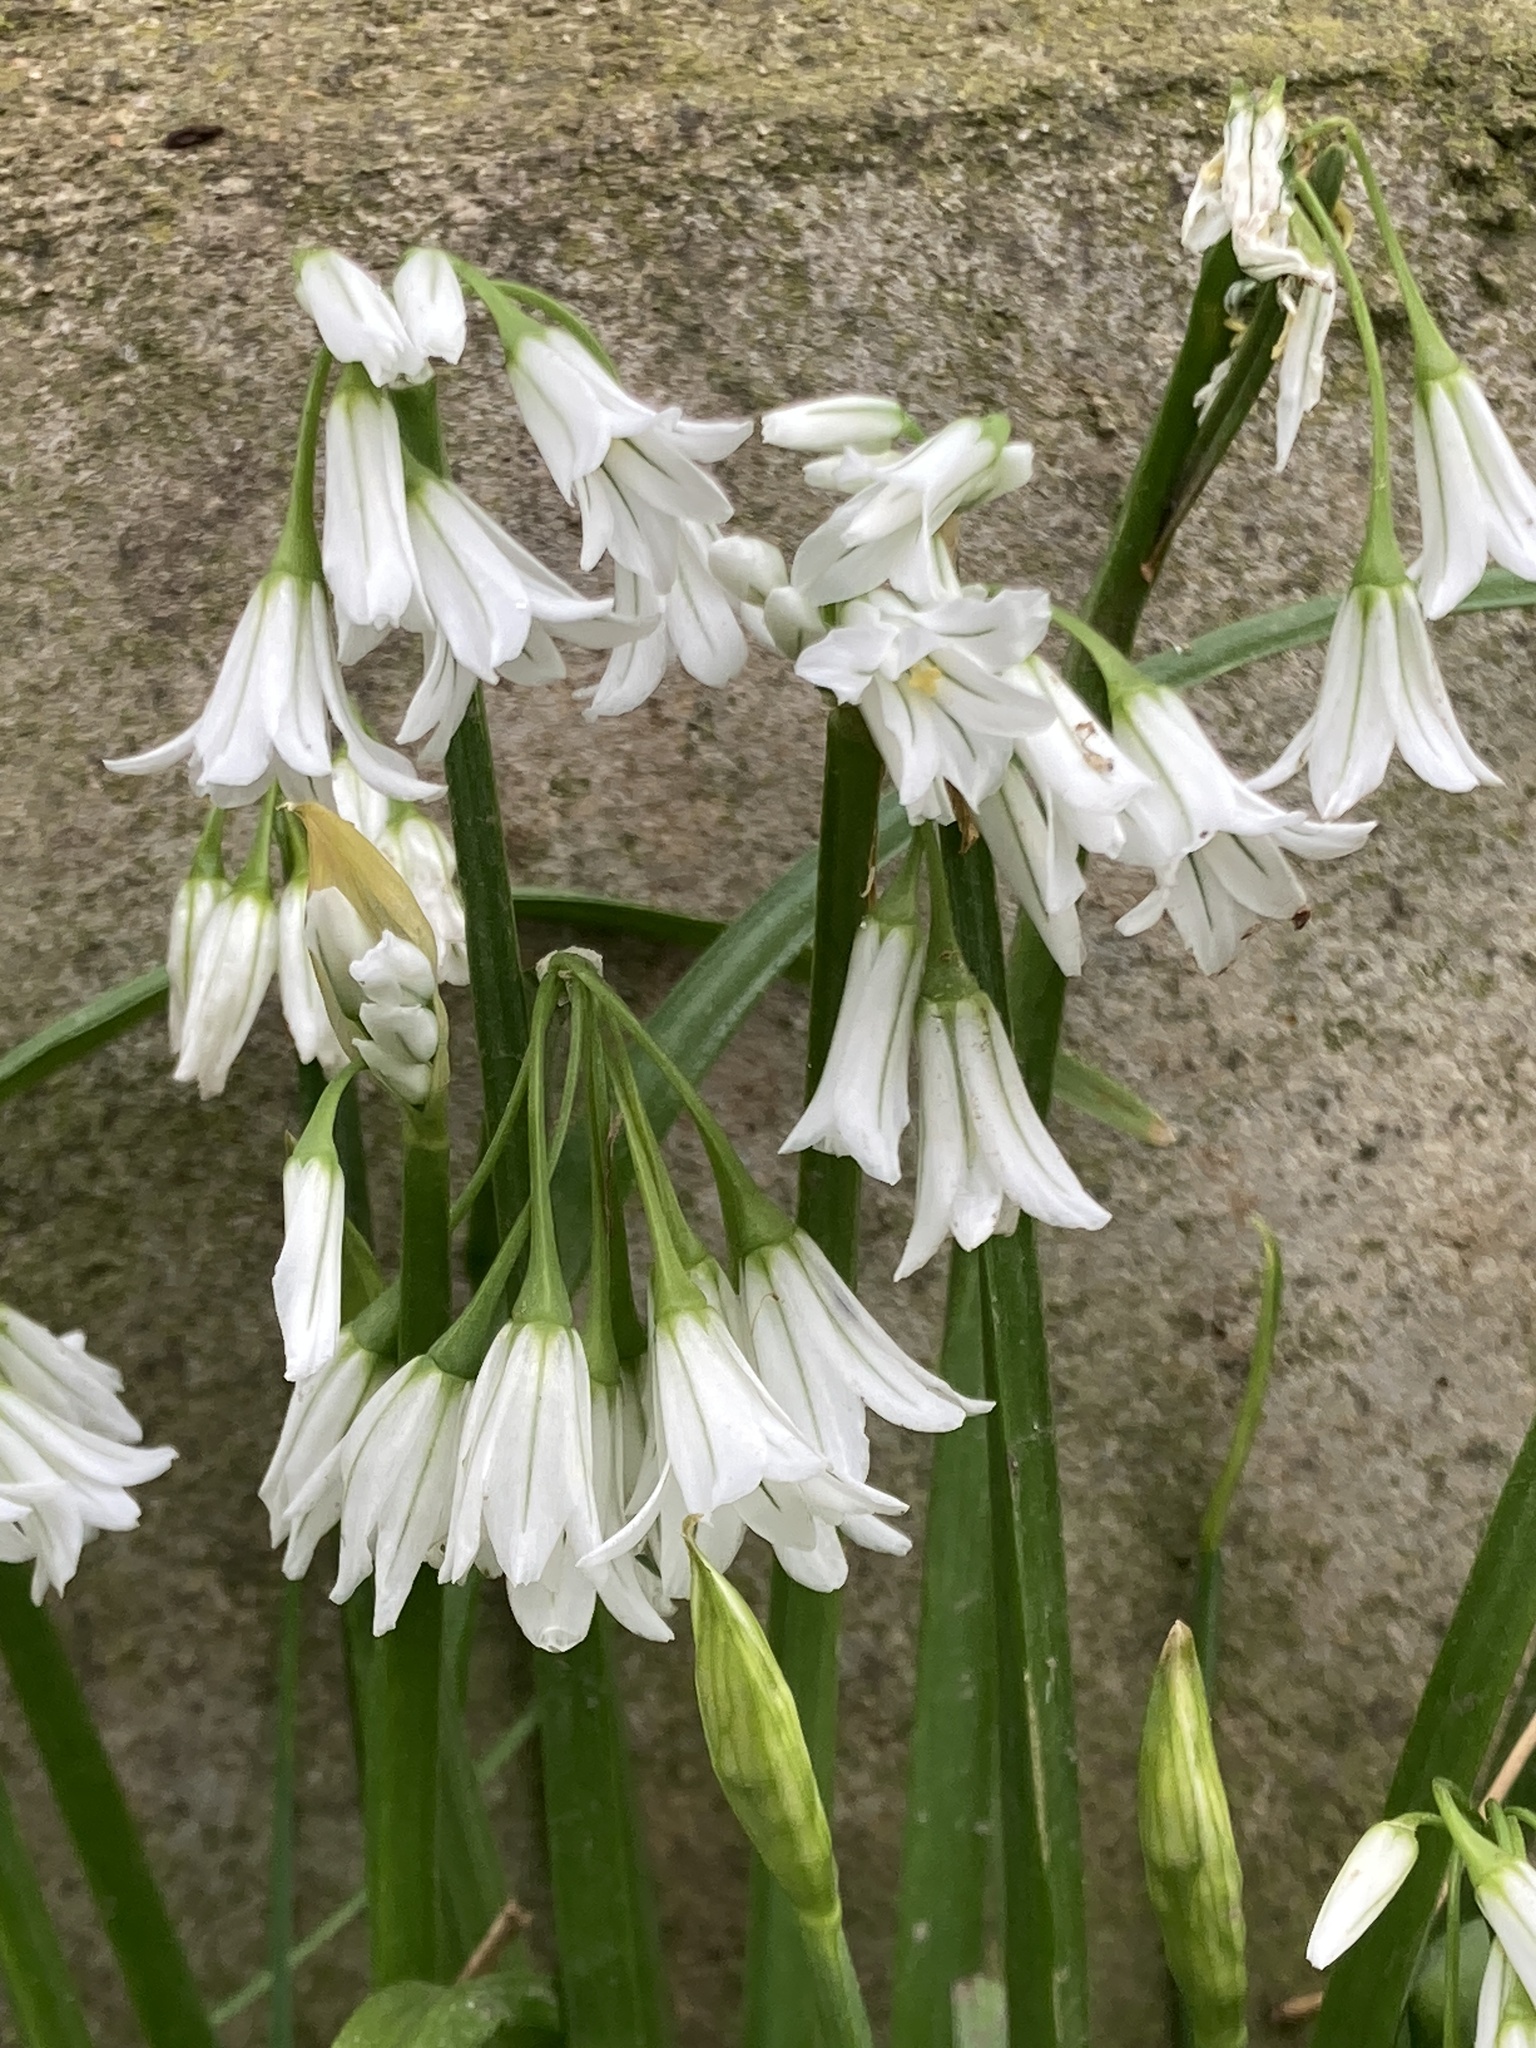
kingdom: Plantae
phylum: Tracheophyta
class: Liliopsida
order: Asparagales
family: Amaryllidaceae
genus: Allium
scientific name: Allium triquetrum
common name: Three-cornered garlic
